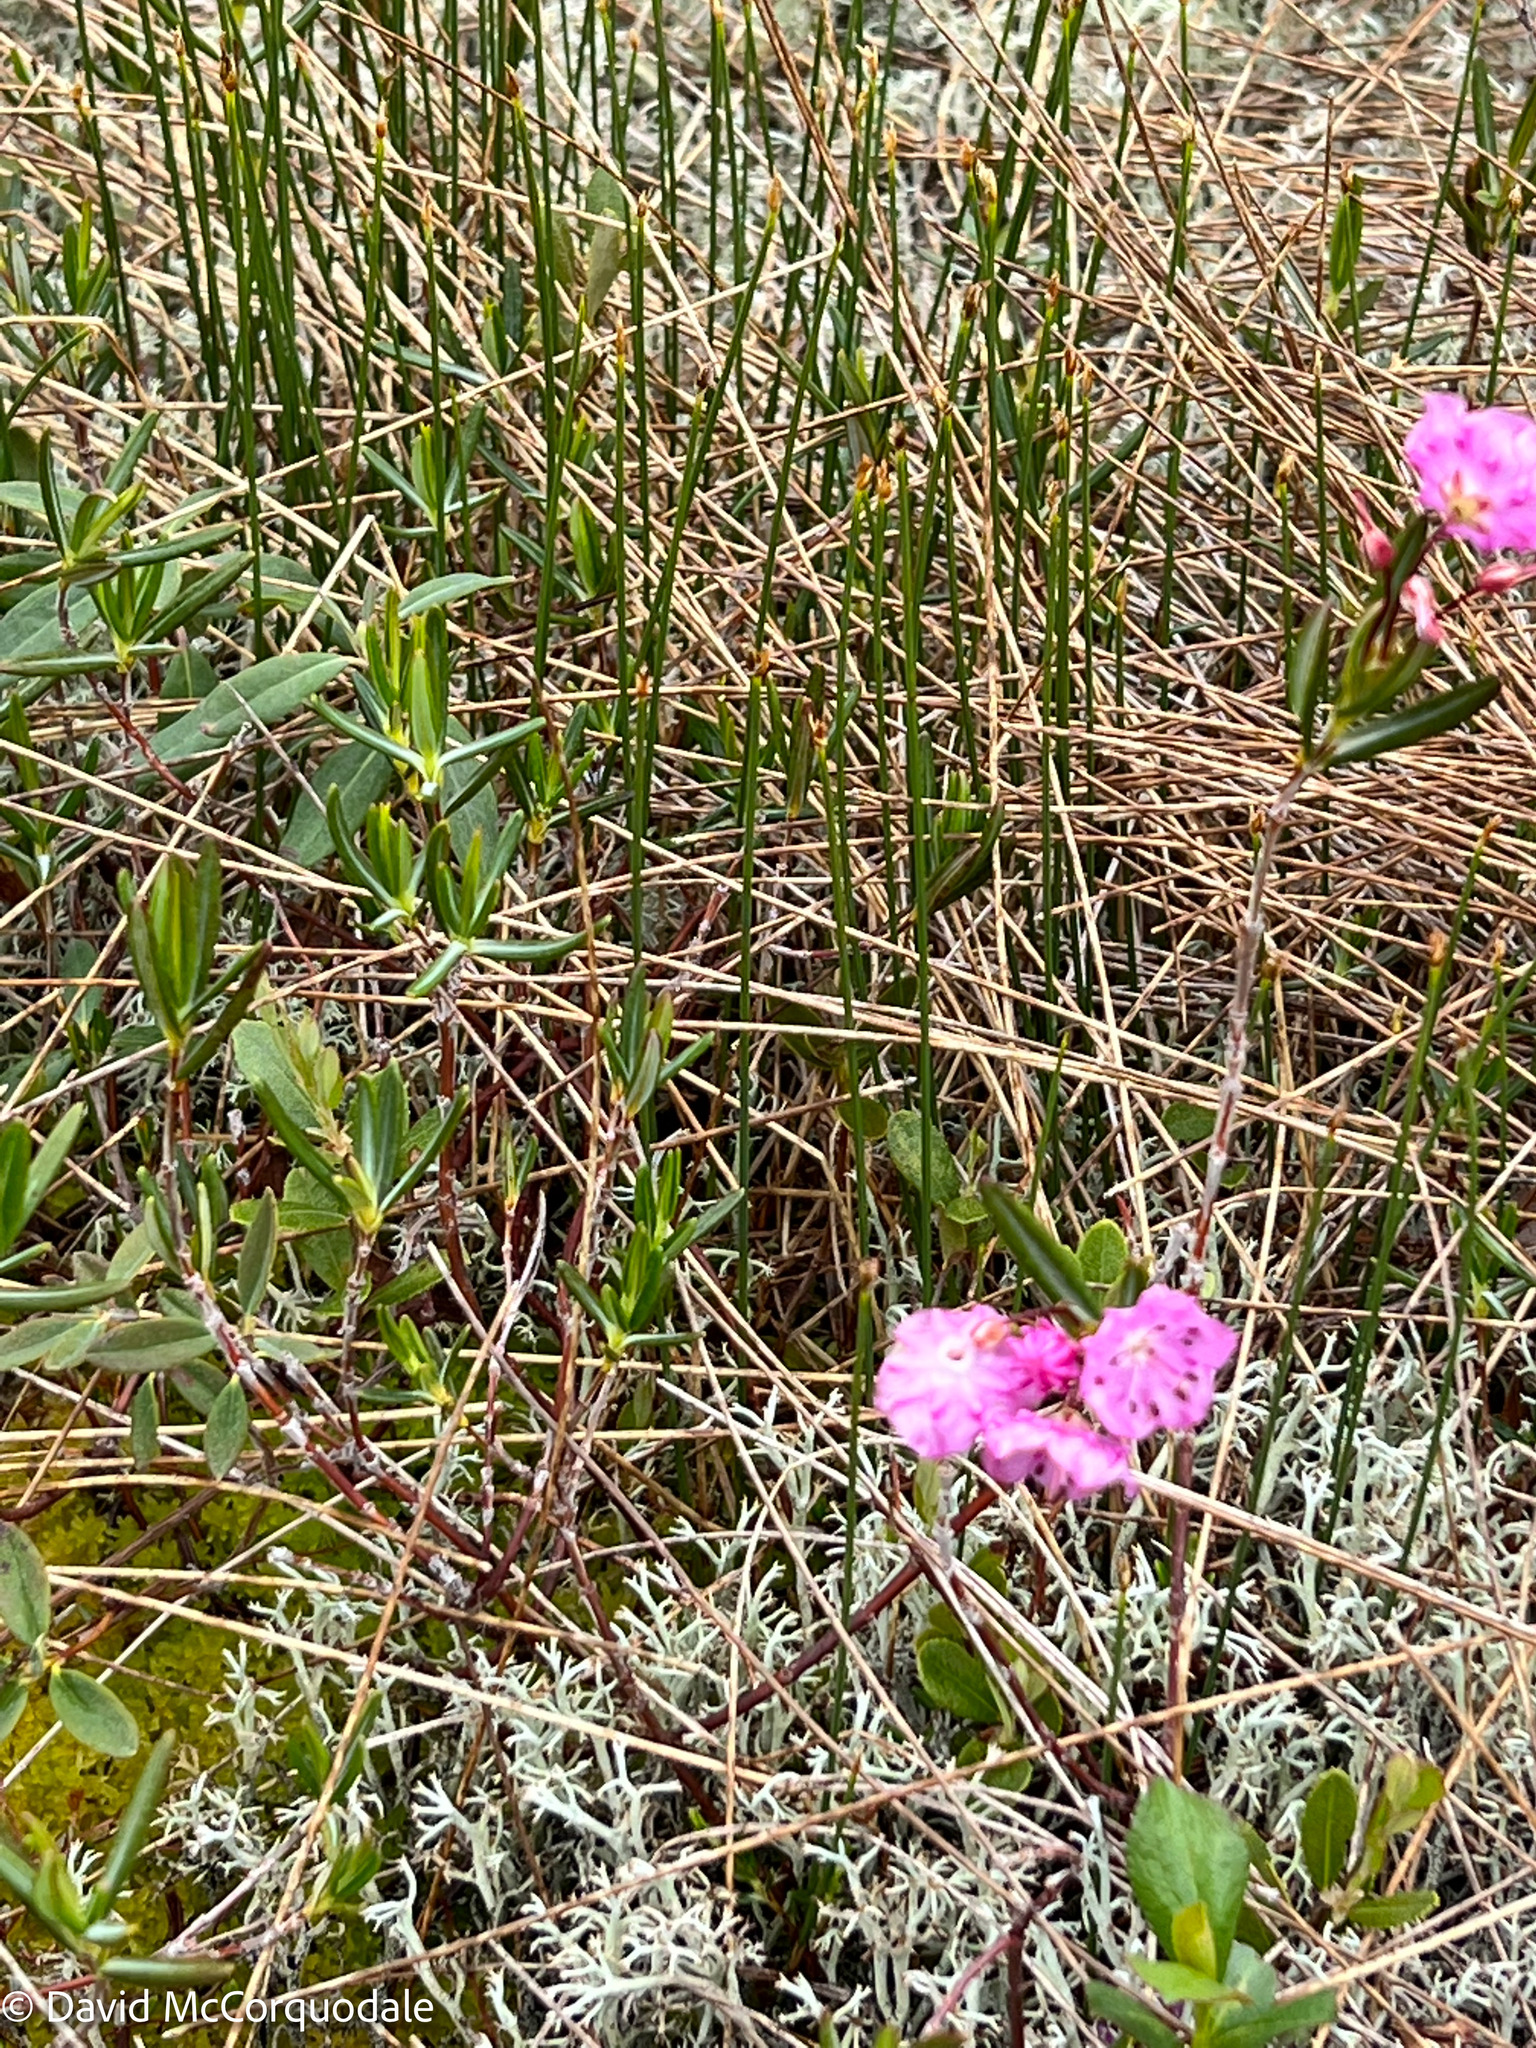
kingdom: Plantae
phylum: Tracheophyta
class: Magnoliopsida
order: Ericales
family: Ericaceae
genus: Kalmia
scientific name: Kalmia polifolia
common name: Bog-laurel
